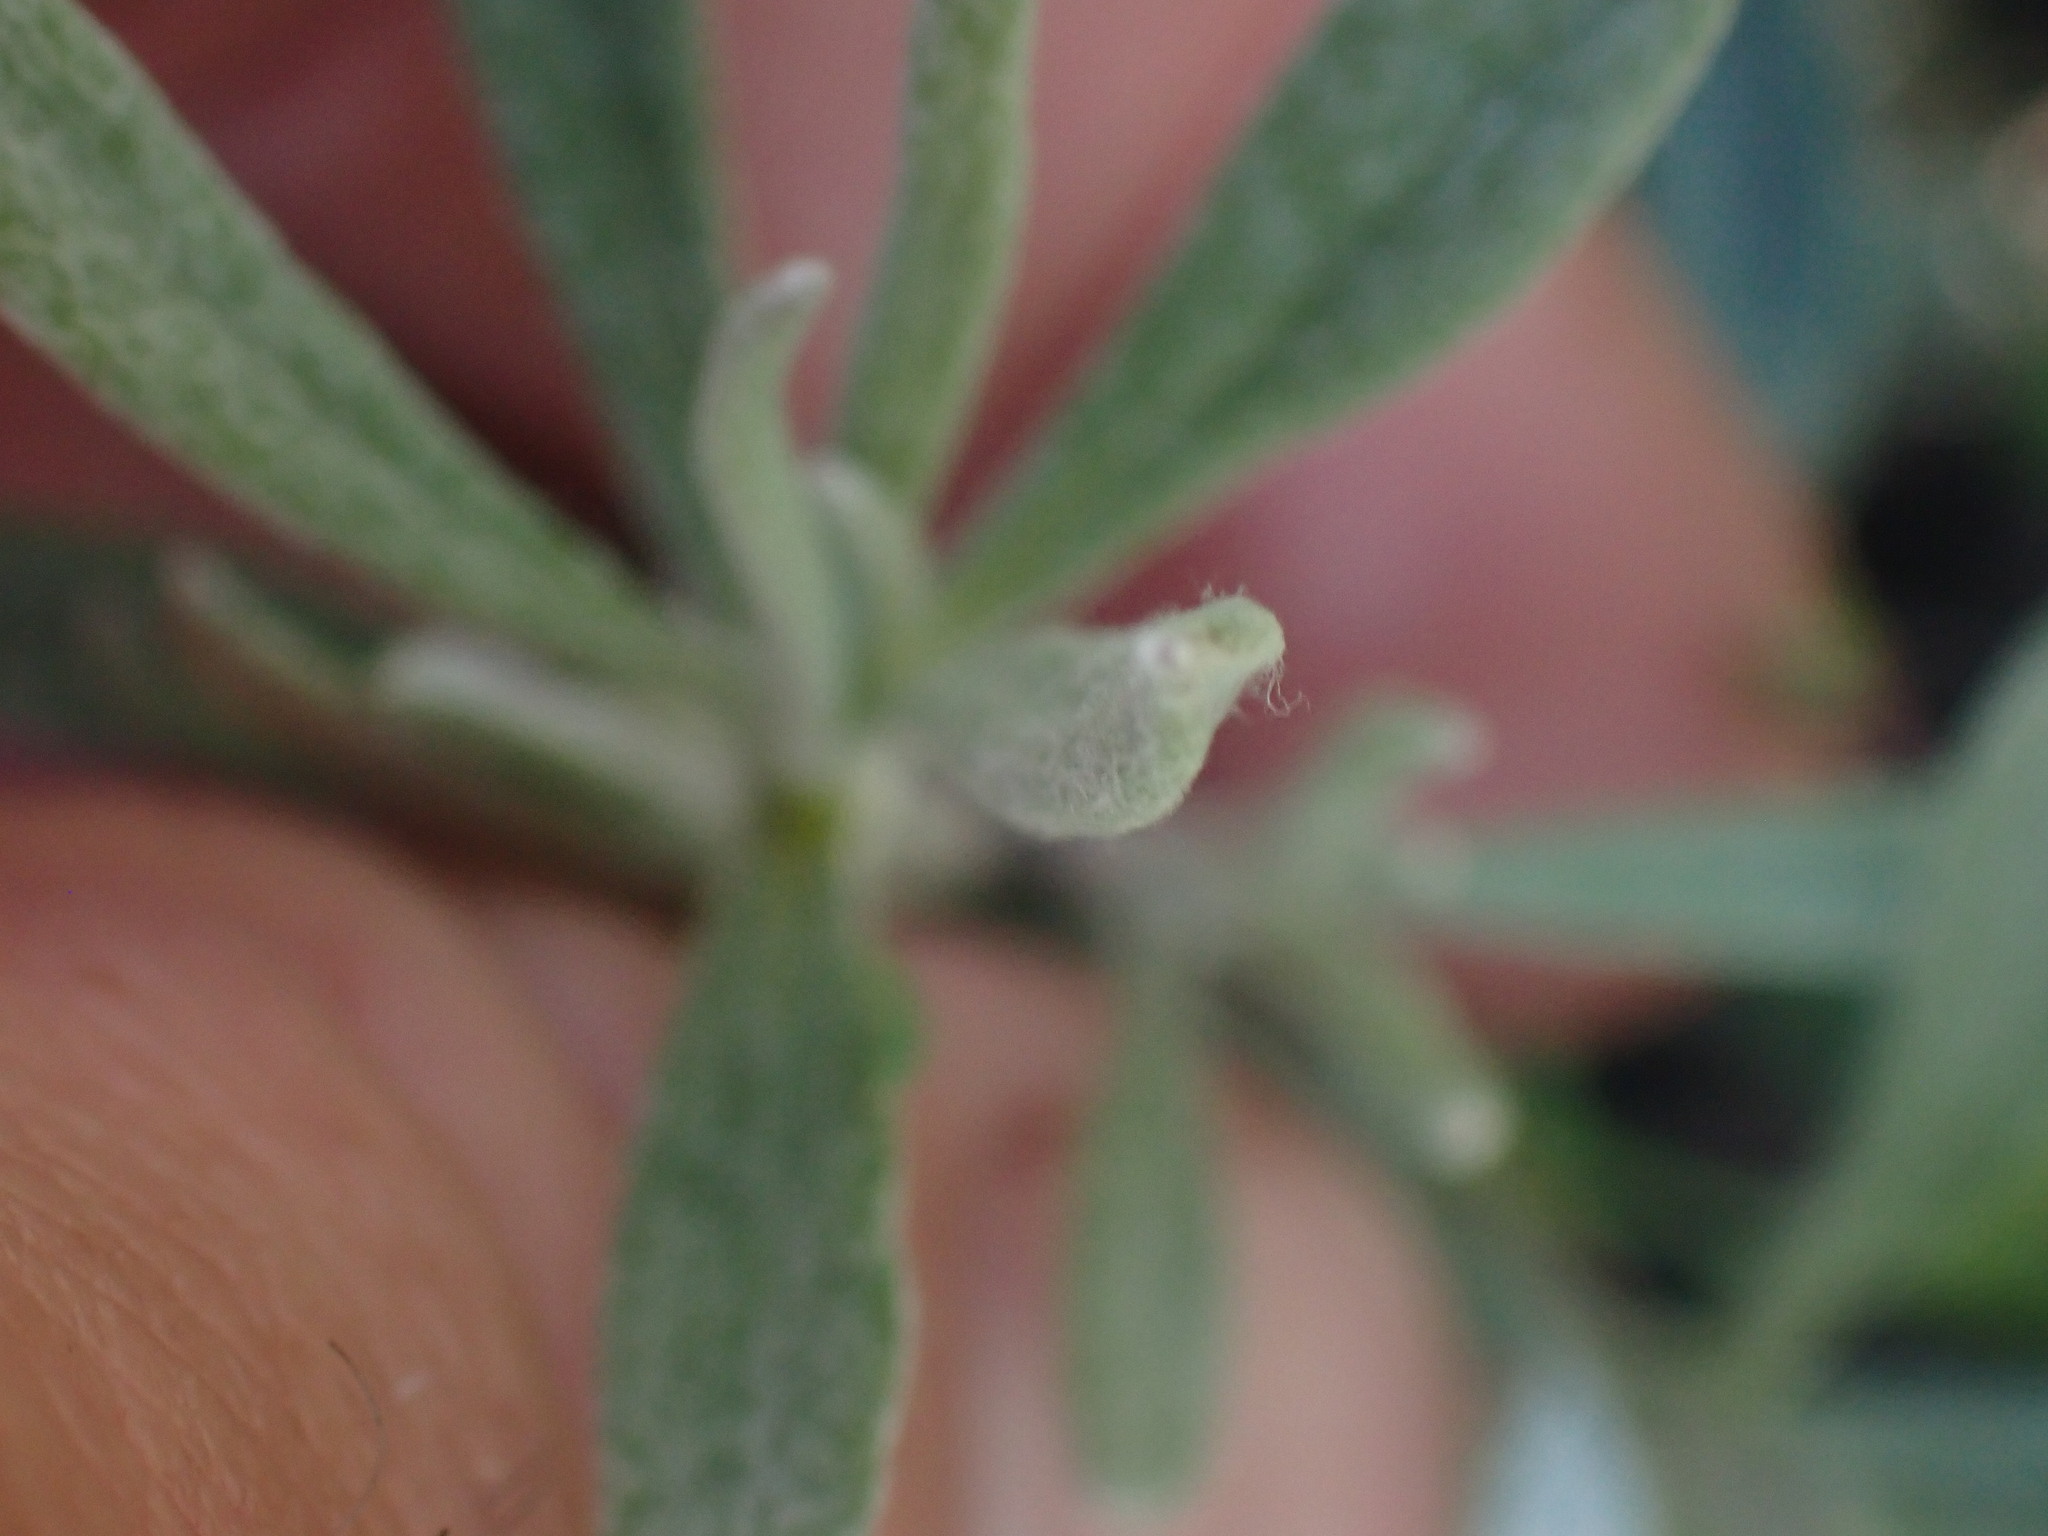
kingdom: Plantae
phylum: Tracheophyta
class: Magnoliopsida
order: Caryophyllales
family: Polygonaceae
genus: Eriogonum
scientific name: Eriogonum heracleoides
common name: Wyeth's buckwheat
